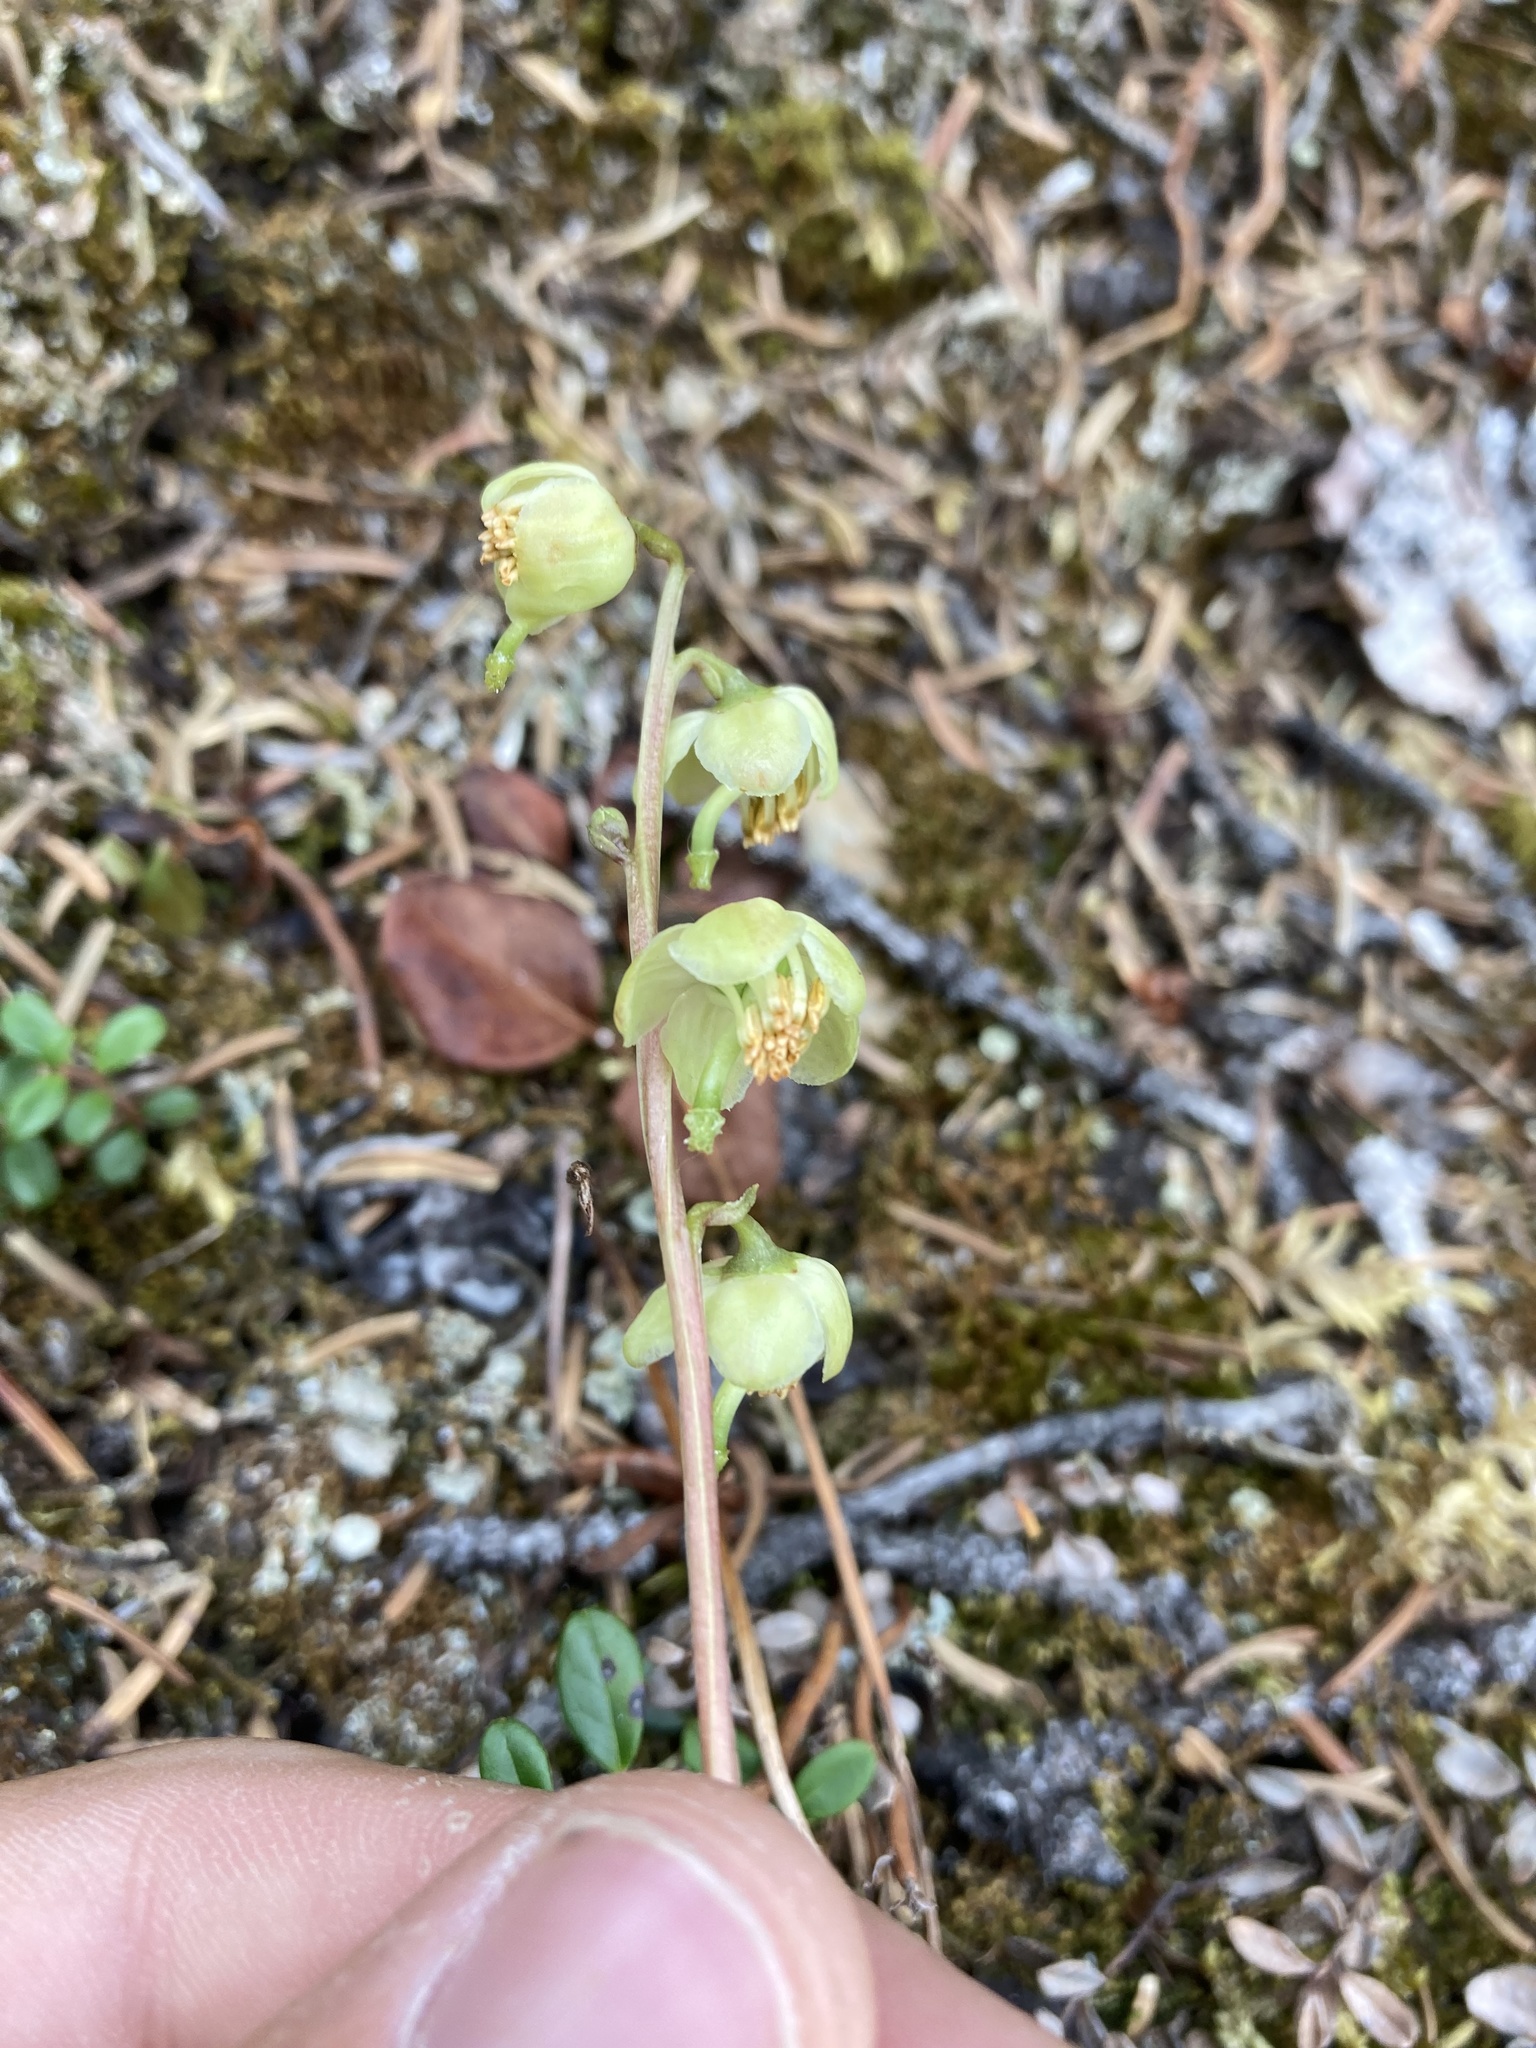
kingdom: Plantae
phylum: Tracheophyta
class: Magnoliopsida
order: Ericales
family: Ericaceae
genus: Pyrola
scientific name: Pyrola chlorantha
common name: Green wintergreen
